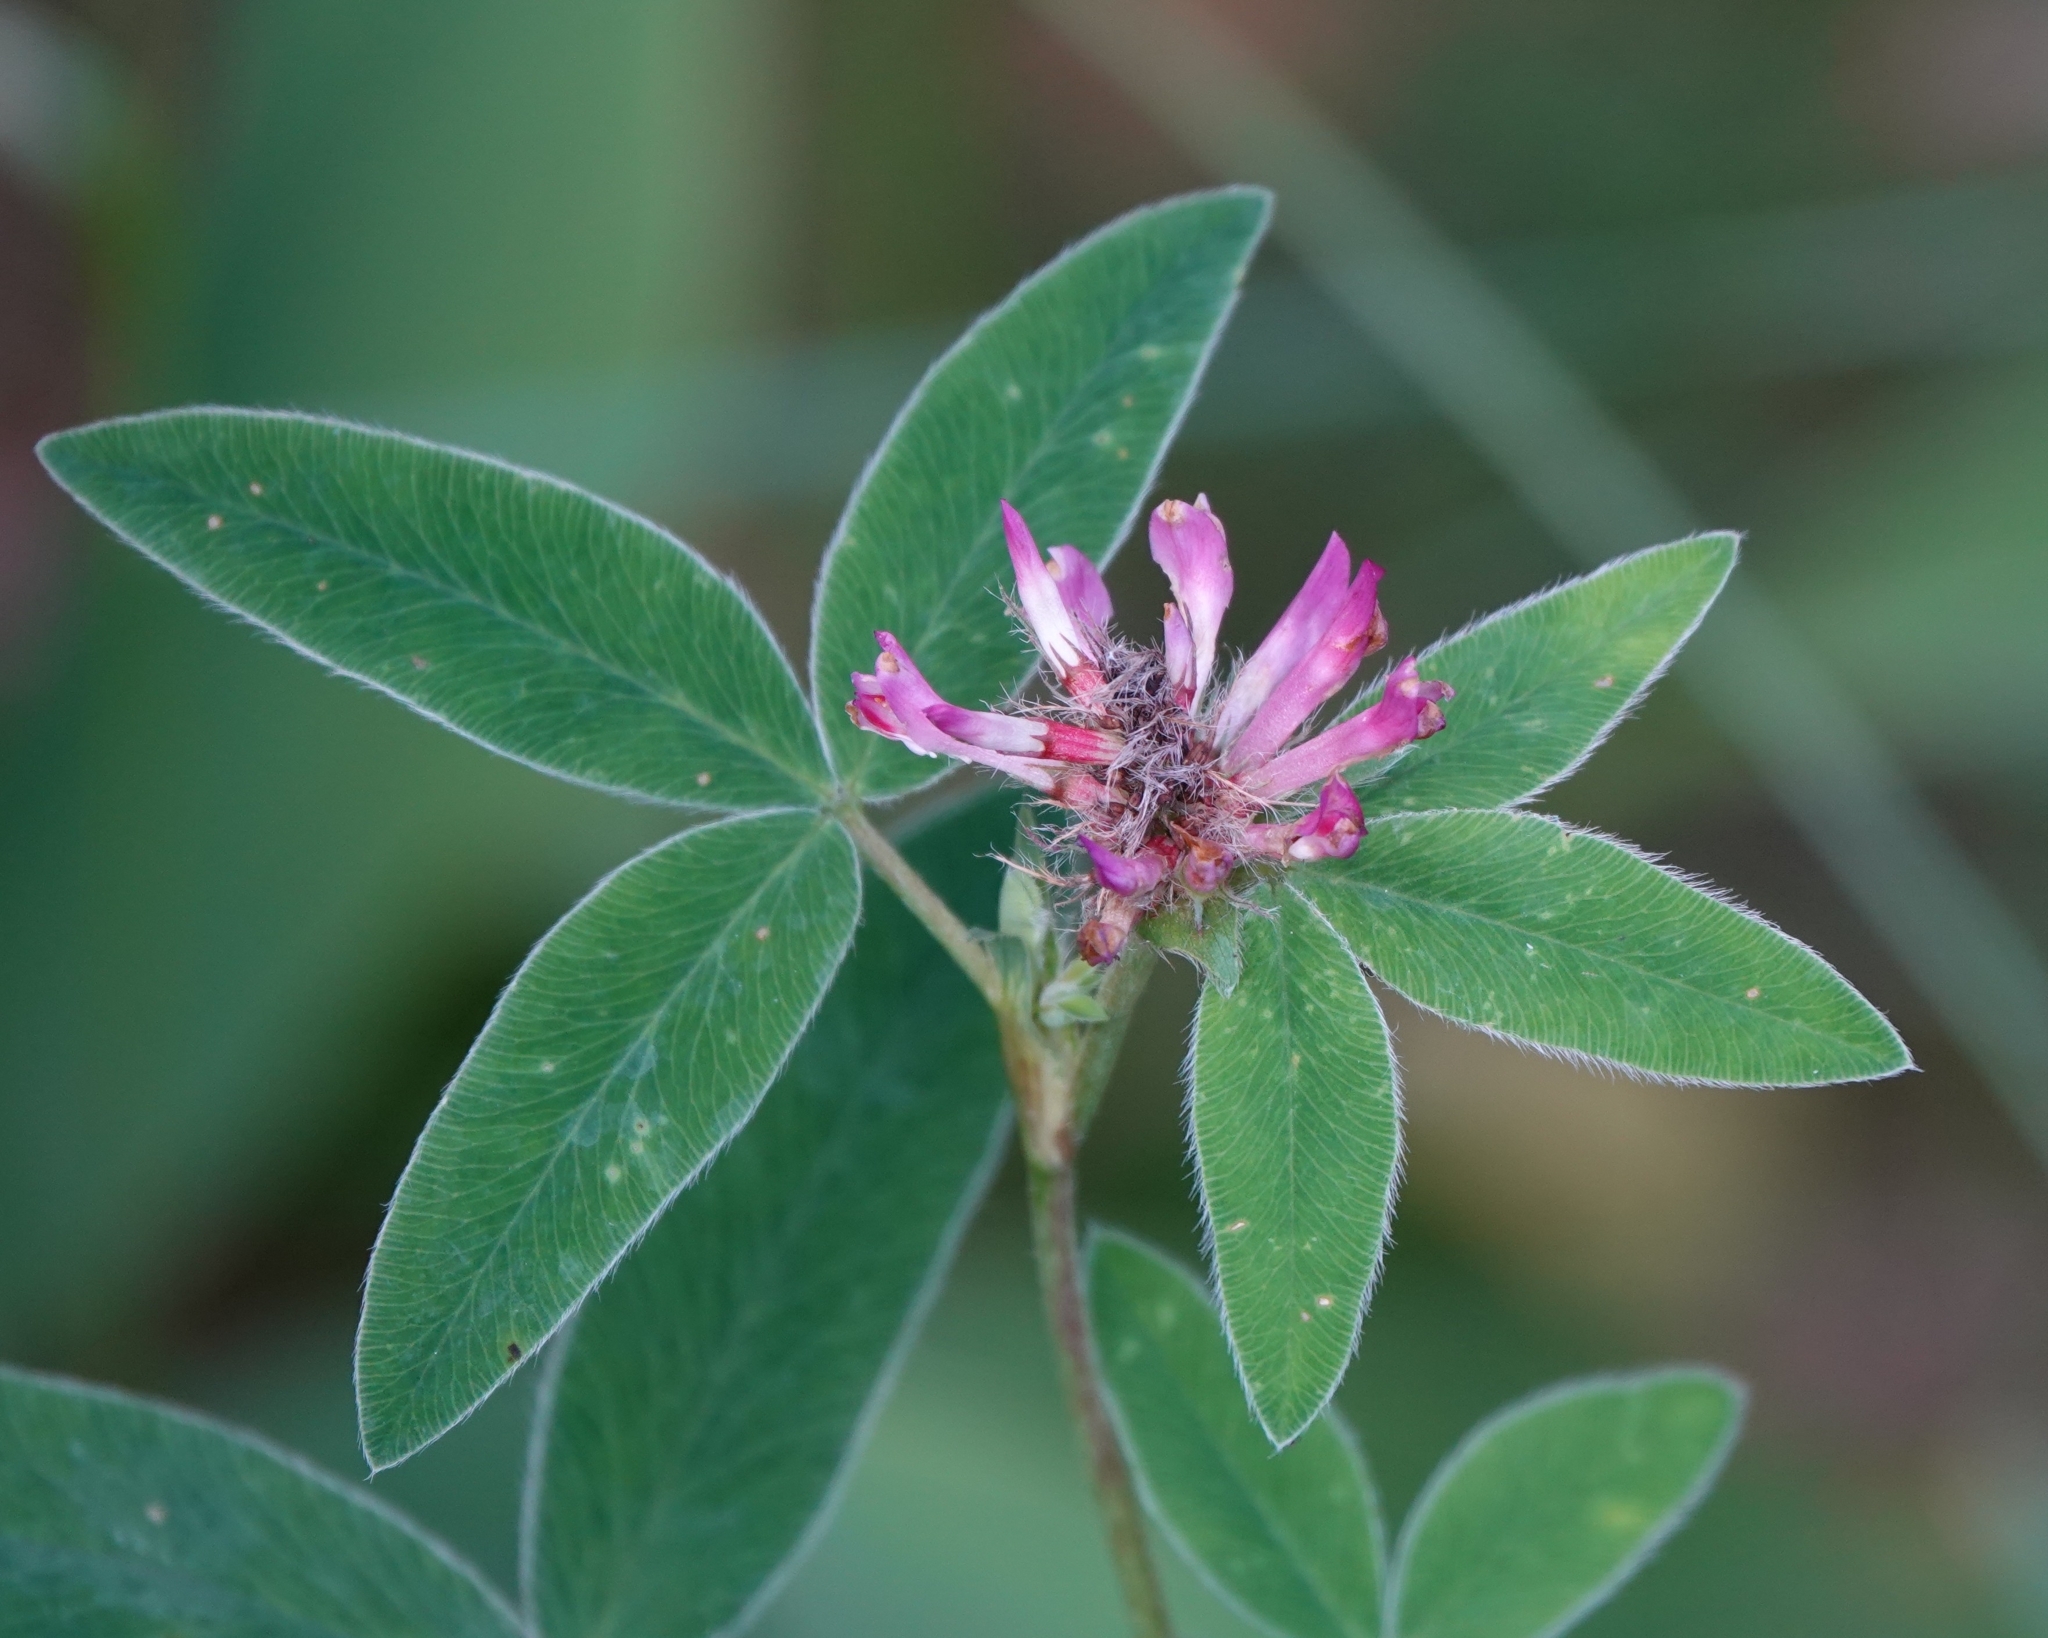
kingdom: Plantae
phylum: Tracheophyta
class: Magnoliopsida
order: Fabales
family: Fabaceae
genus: Trifolium
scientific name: Trifolium medium
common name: Zigzag clover
